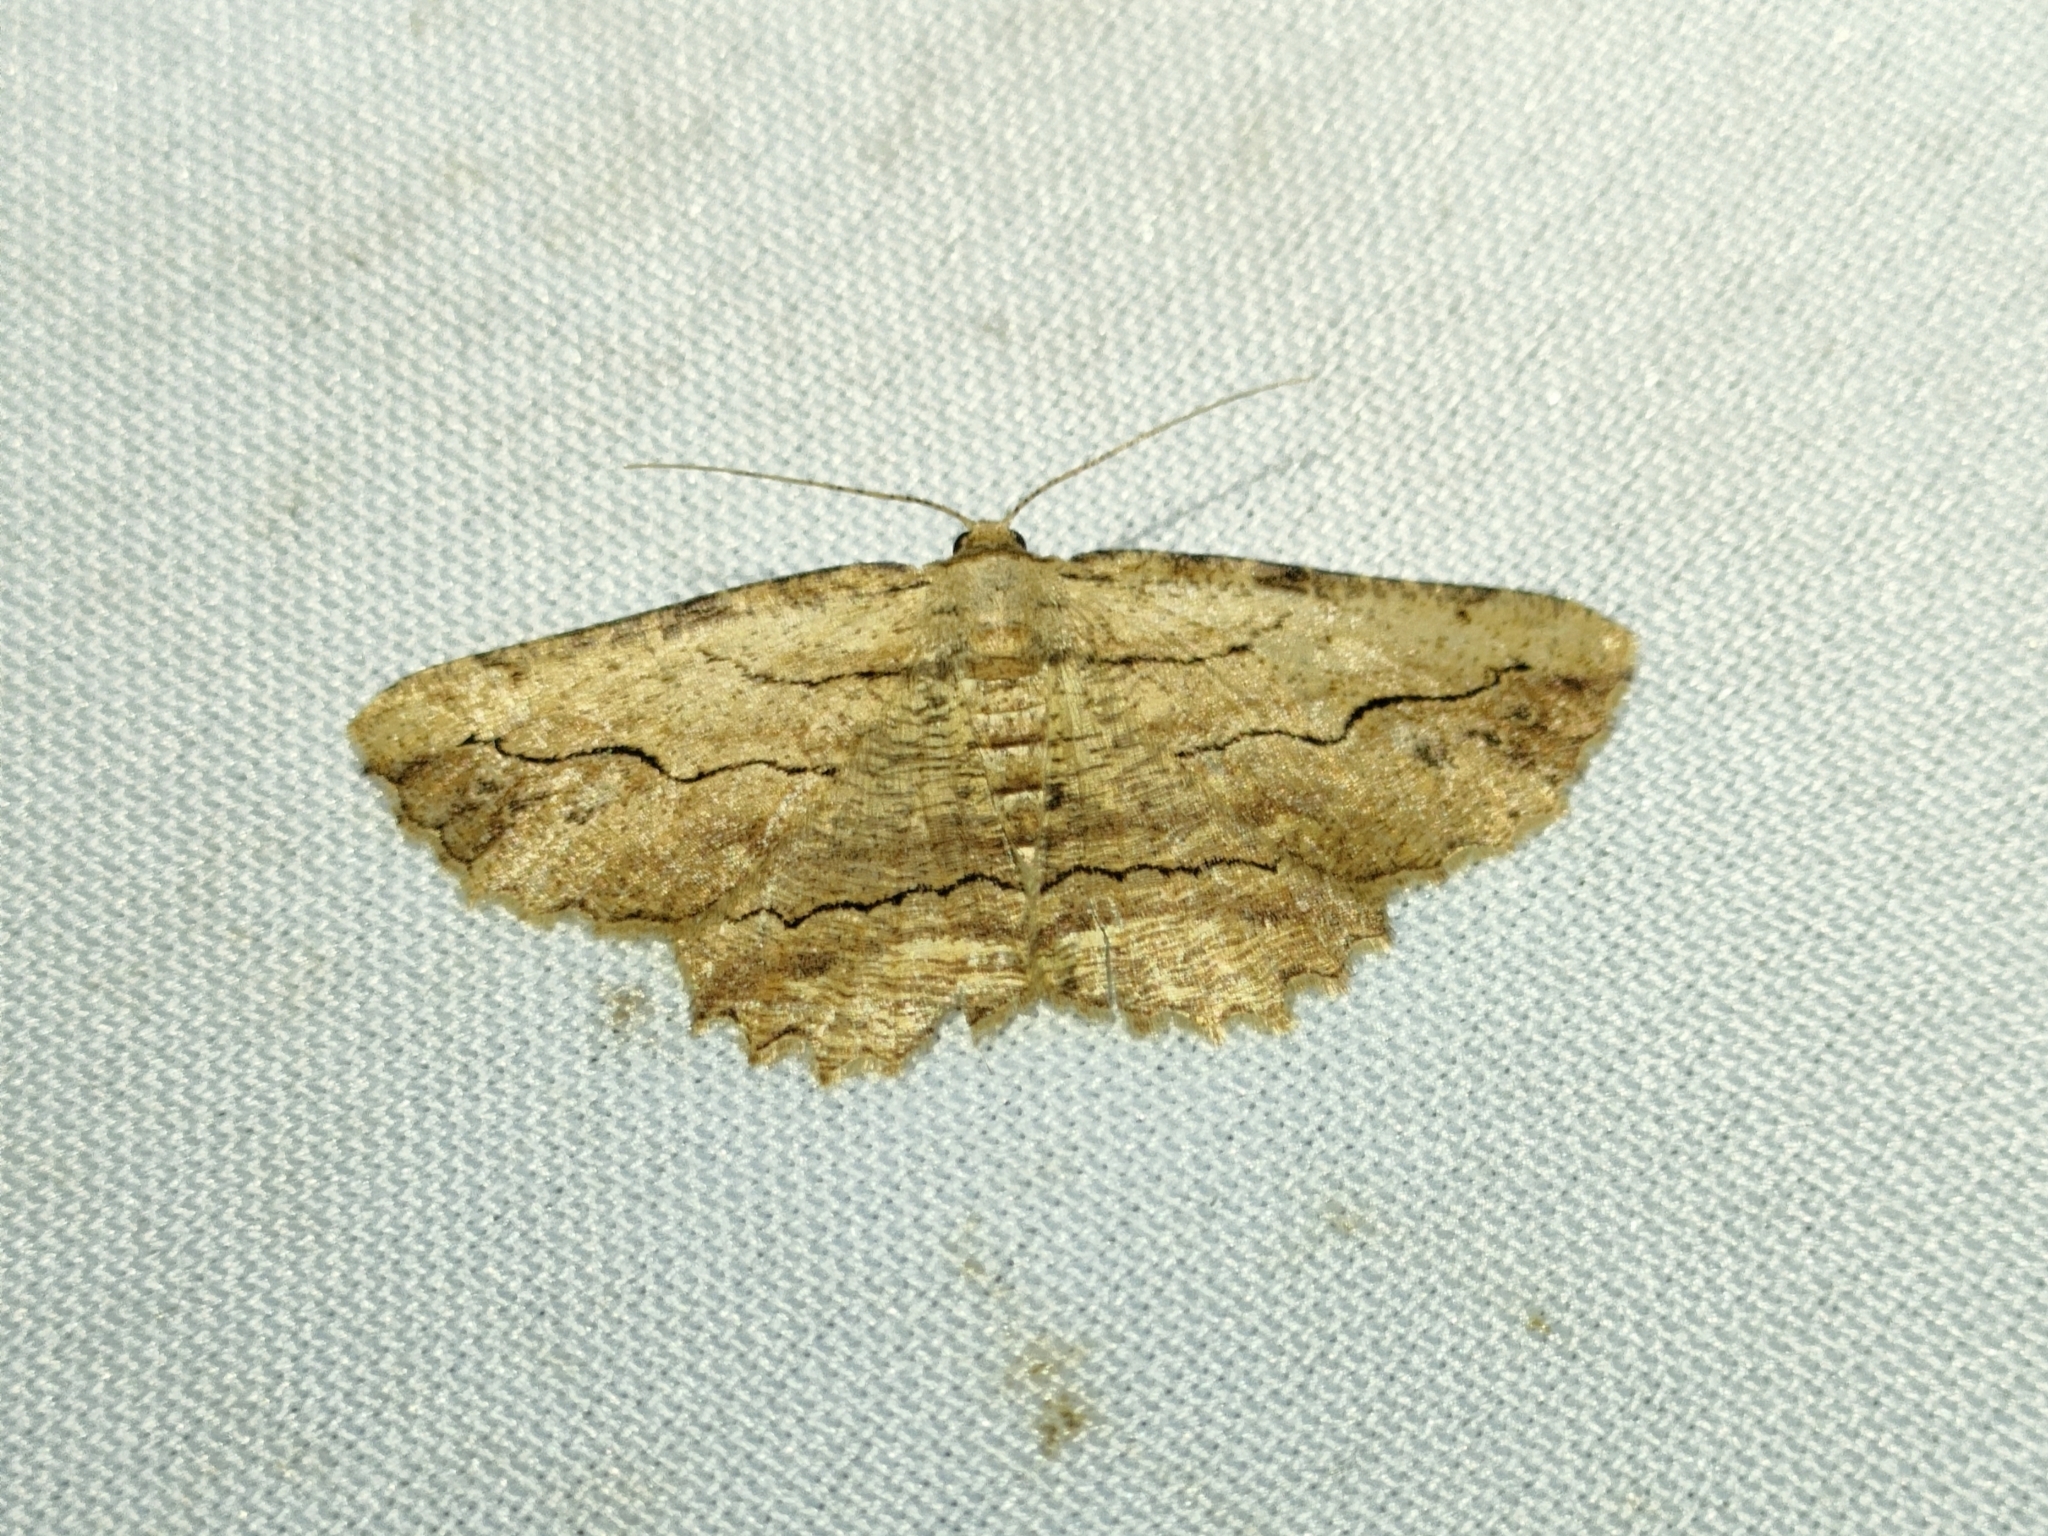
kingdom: Animalia
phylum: Arthropoda
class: Insecta
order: Lepidoptera
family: Geometridae
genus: Menophra
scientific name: Menophra abruptaria
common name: Waved umber
